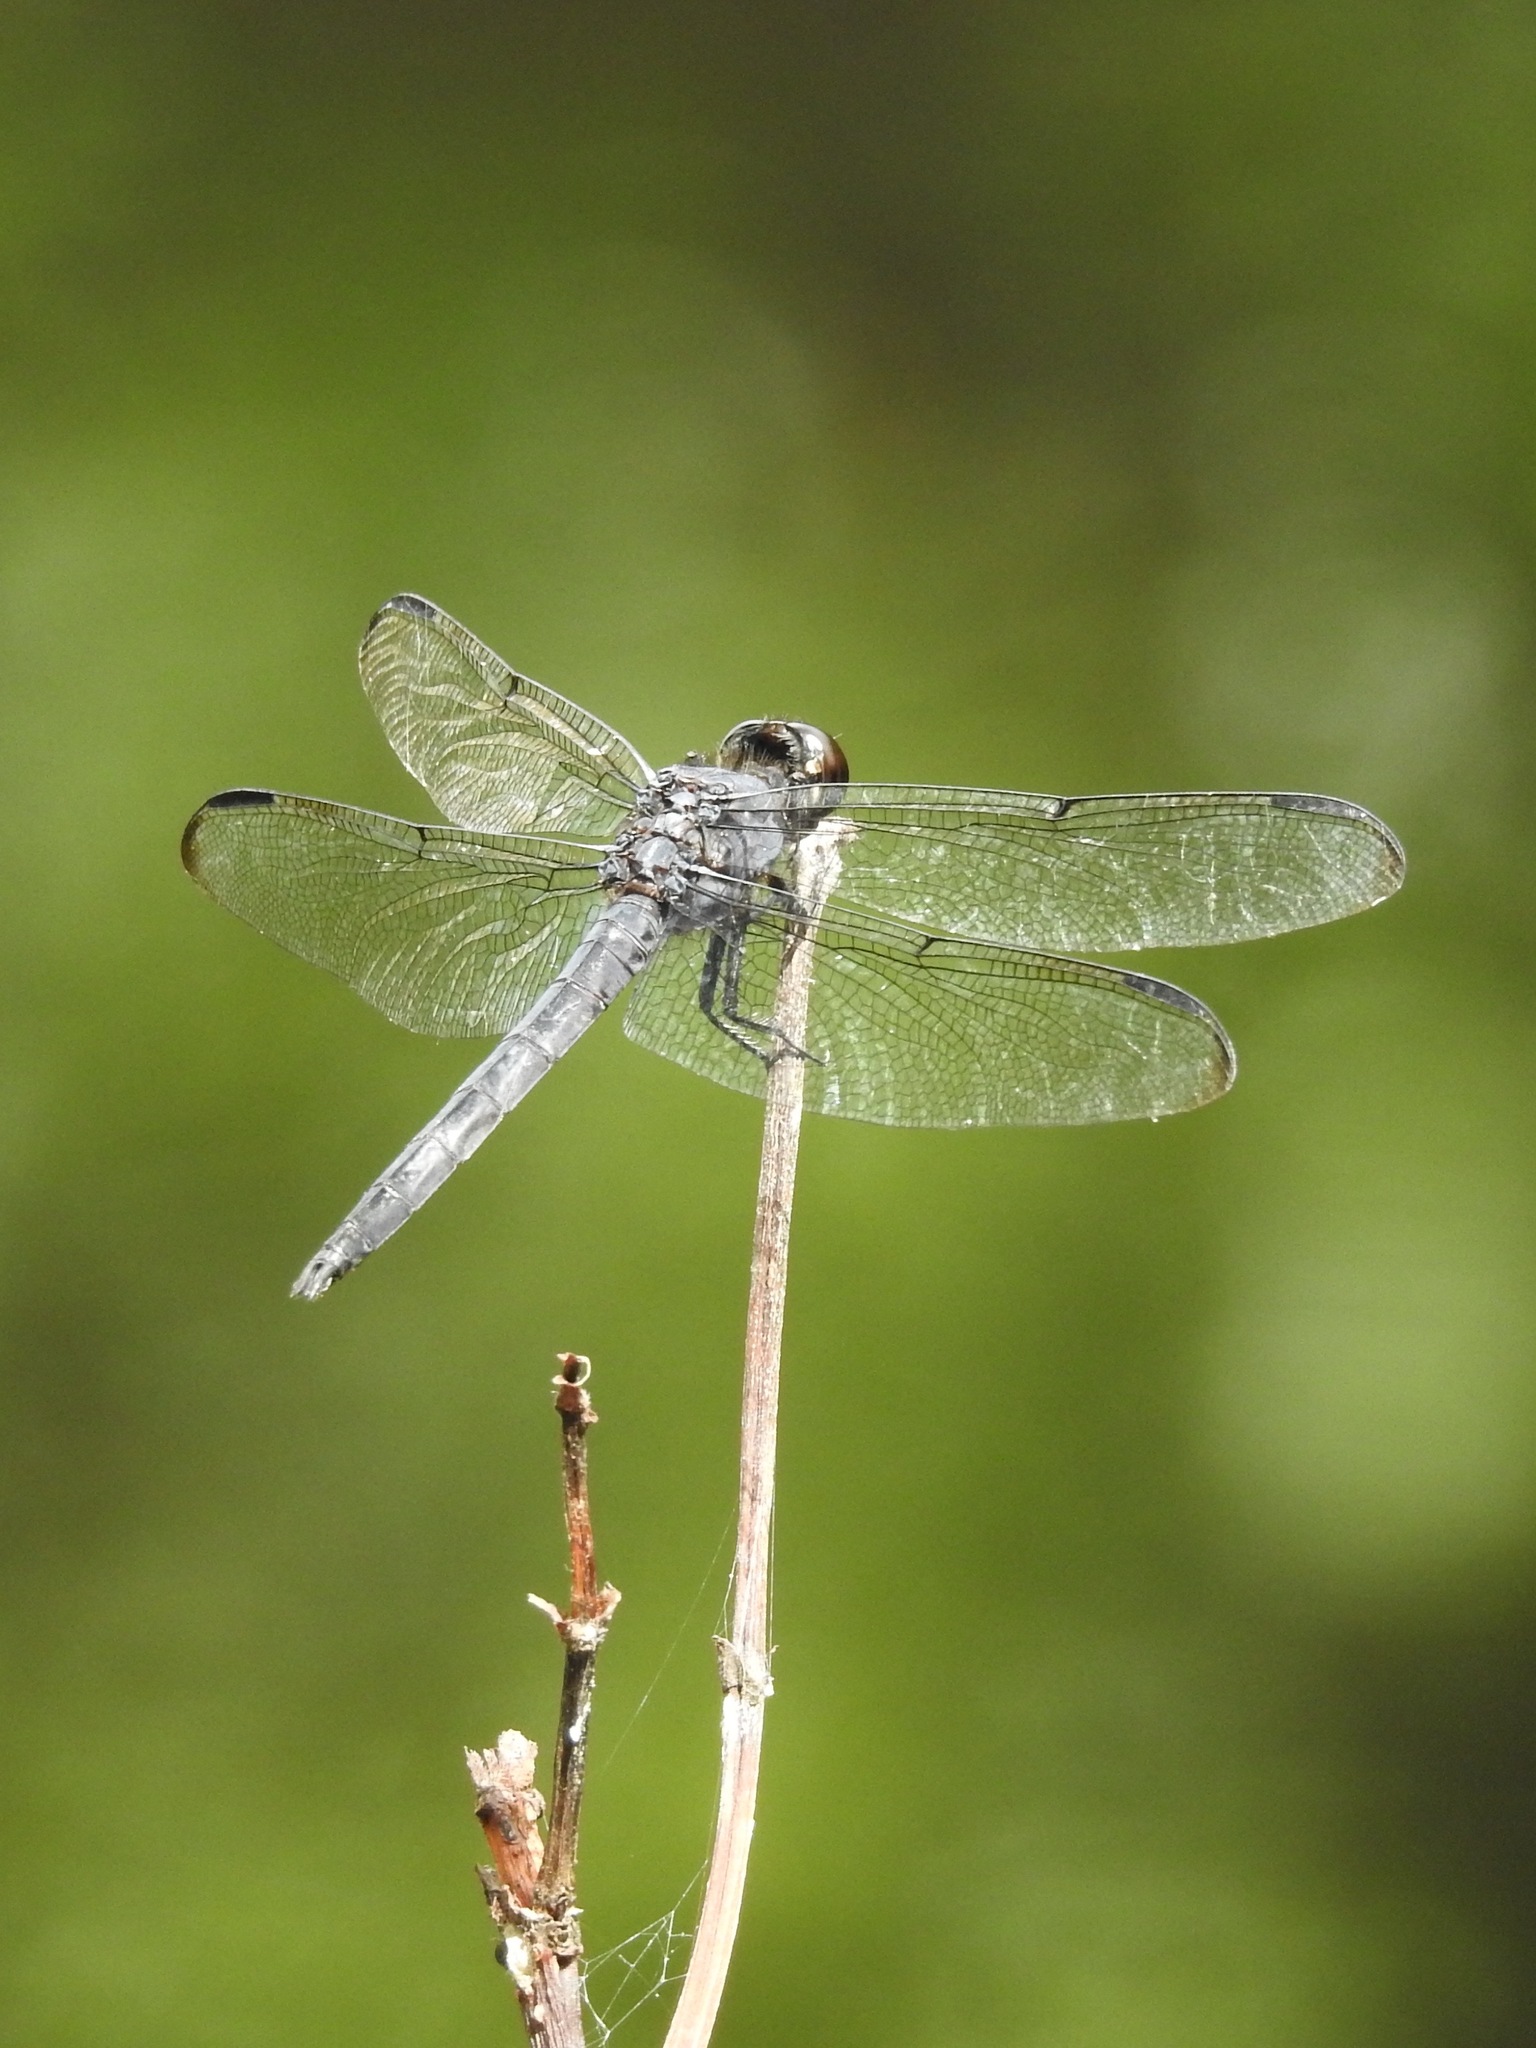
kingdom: Animalia
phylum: Arthropoda
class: Insecta
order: Odonata
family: Libellulidae
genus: Libellula
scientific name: Libellula incesta
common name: Slaty skimmer
